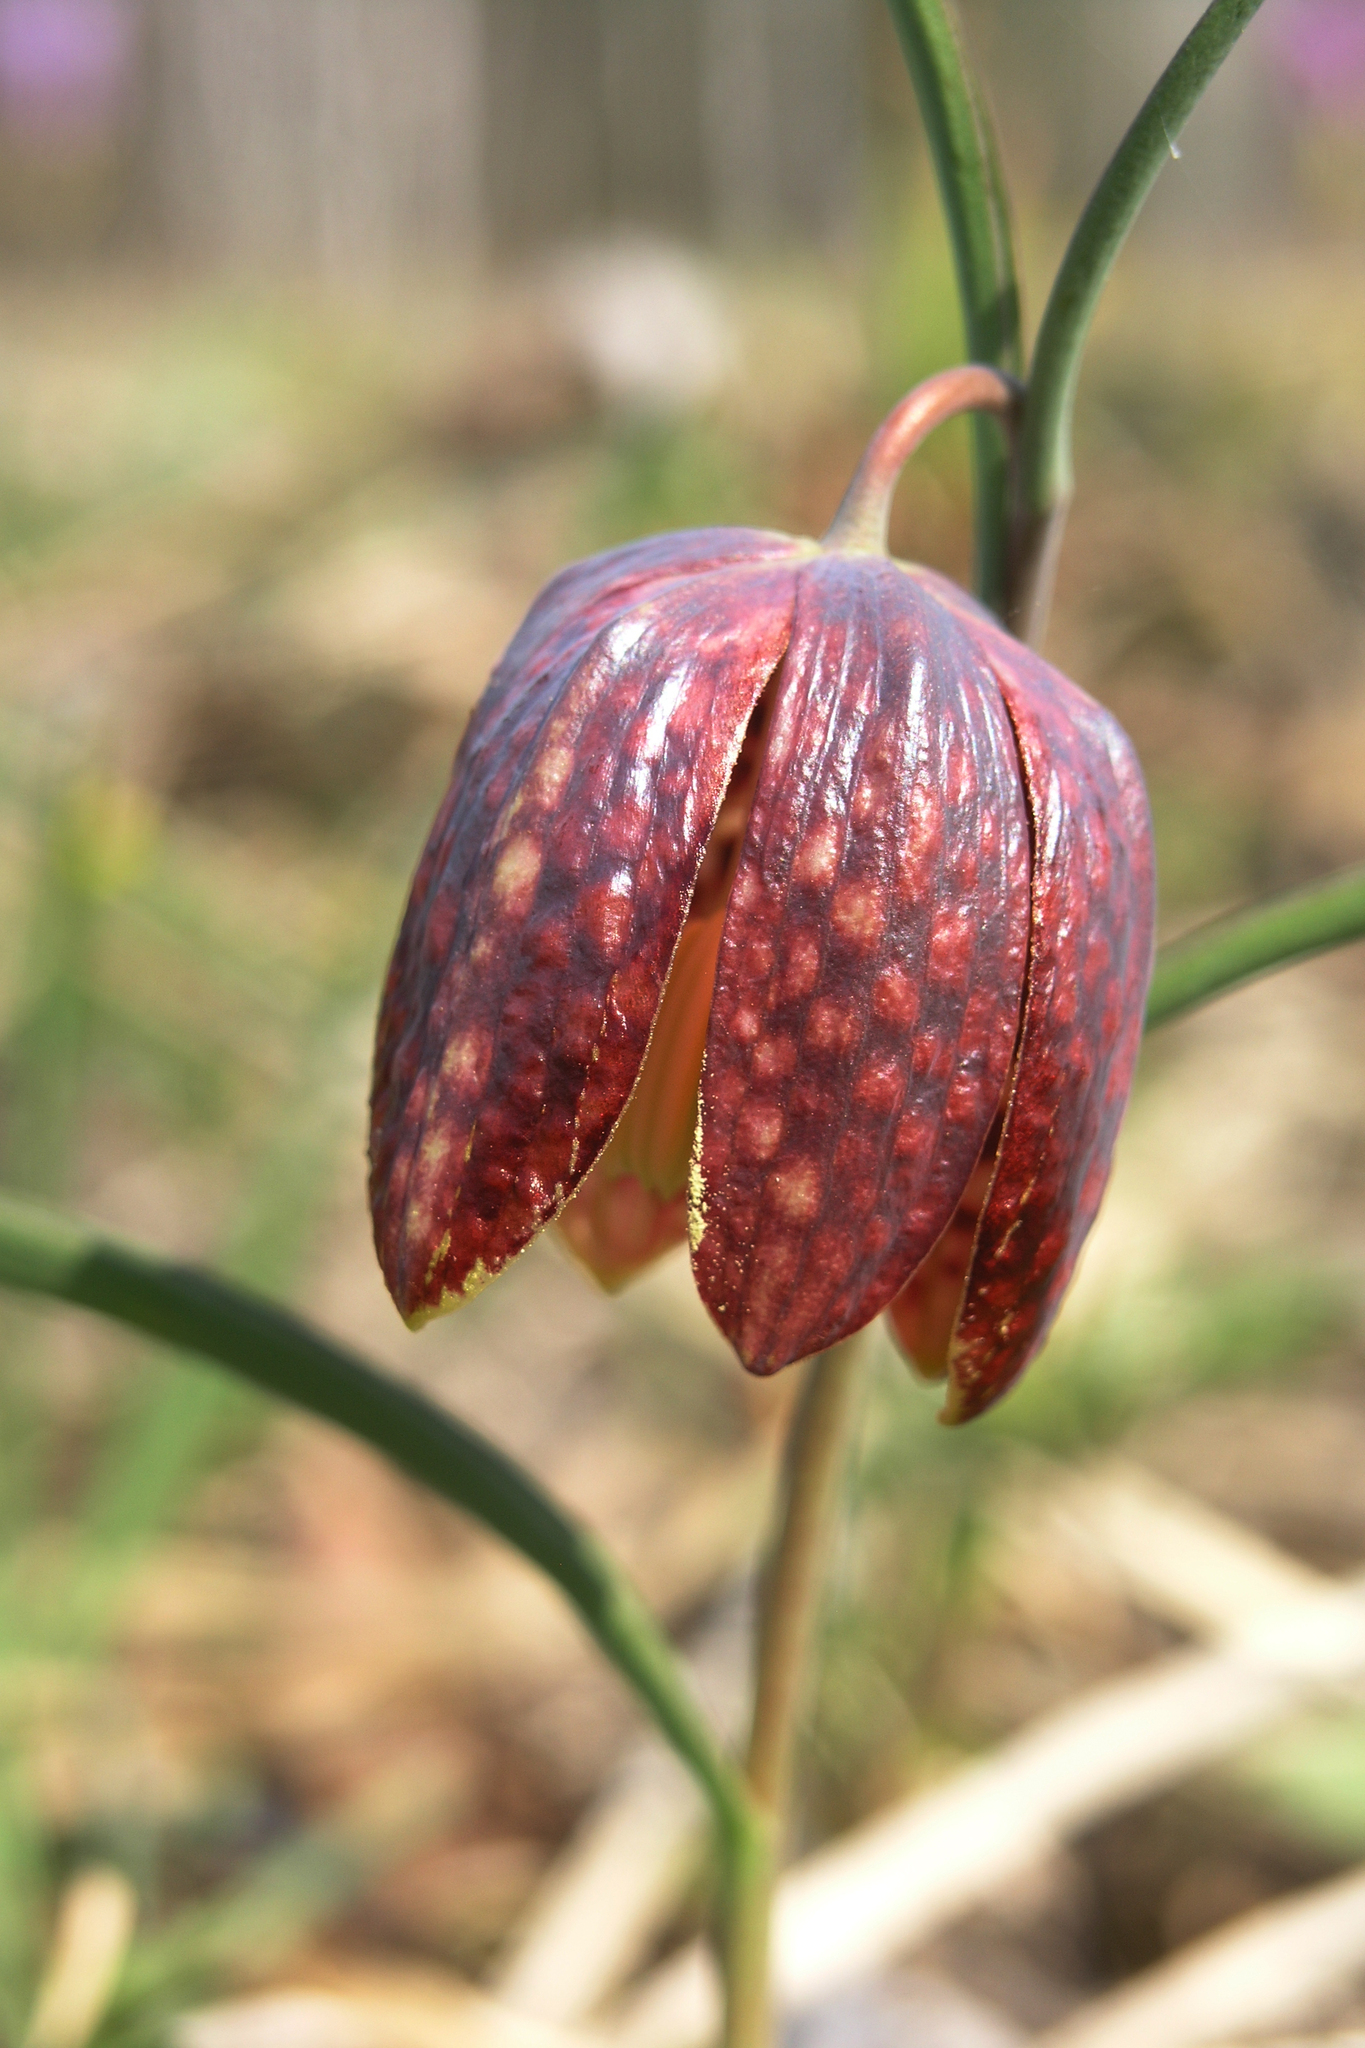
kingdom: Plantae
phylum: Tracheophyta
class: Liliopsida
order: Liliales
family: Liliaceae
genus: Fritillaria
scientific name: Fritillaria meleagris
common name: Fritillary
